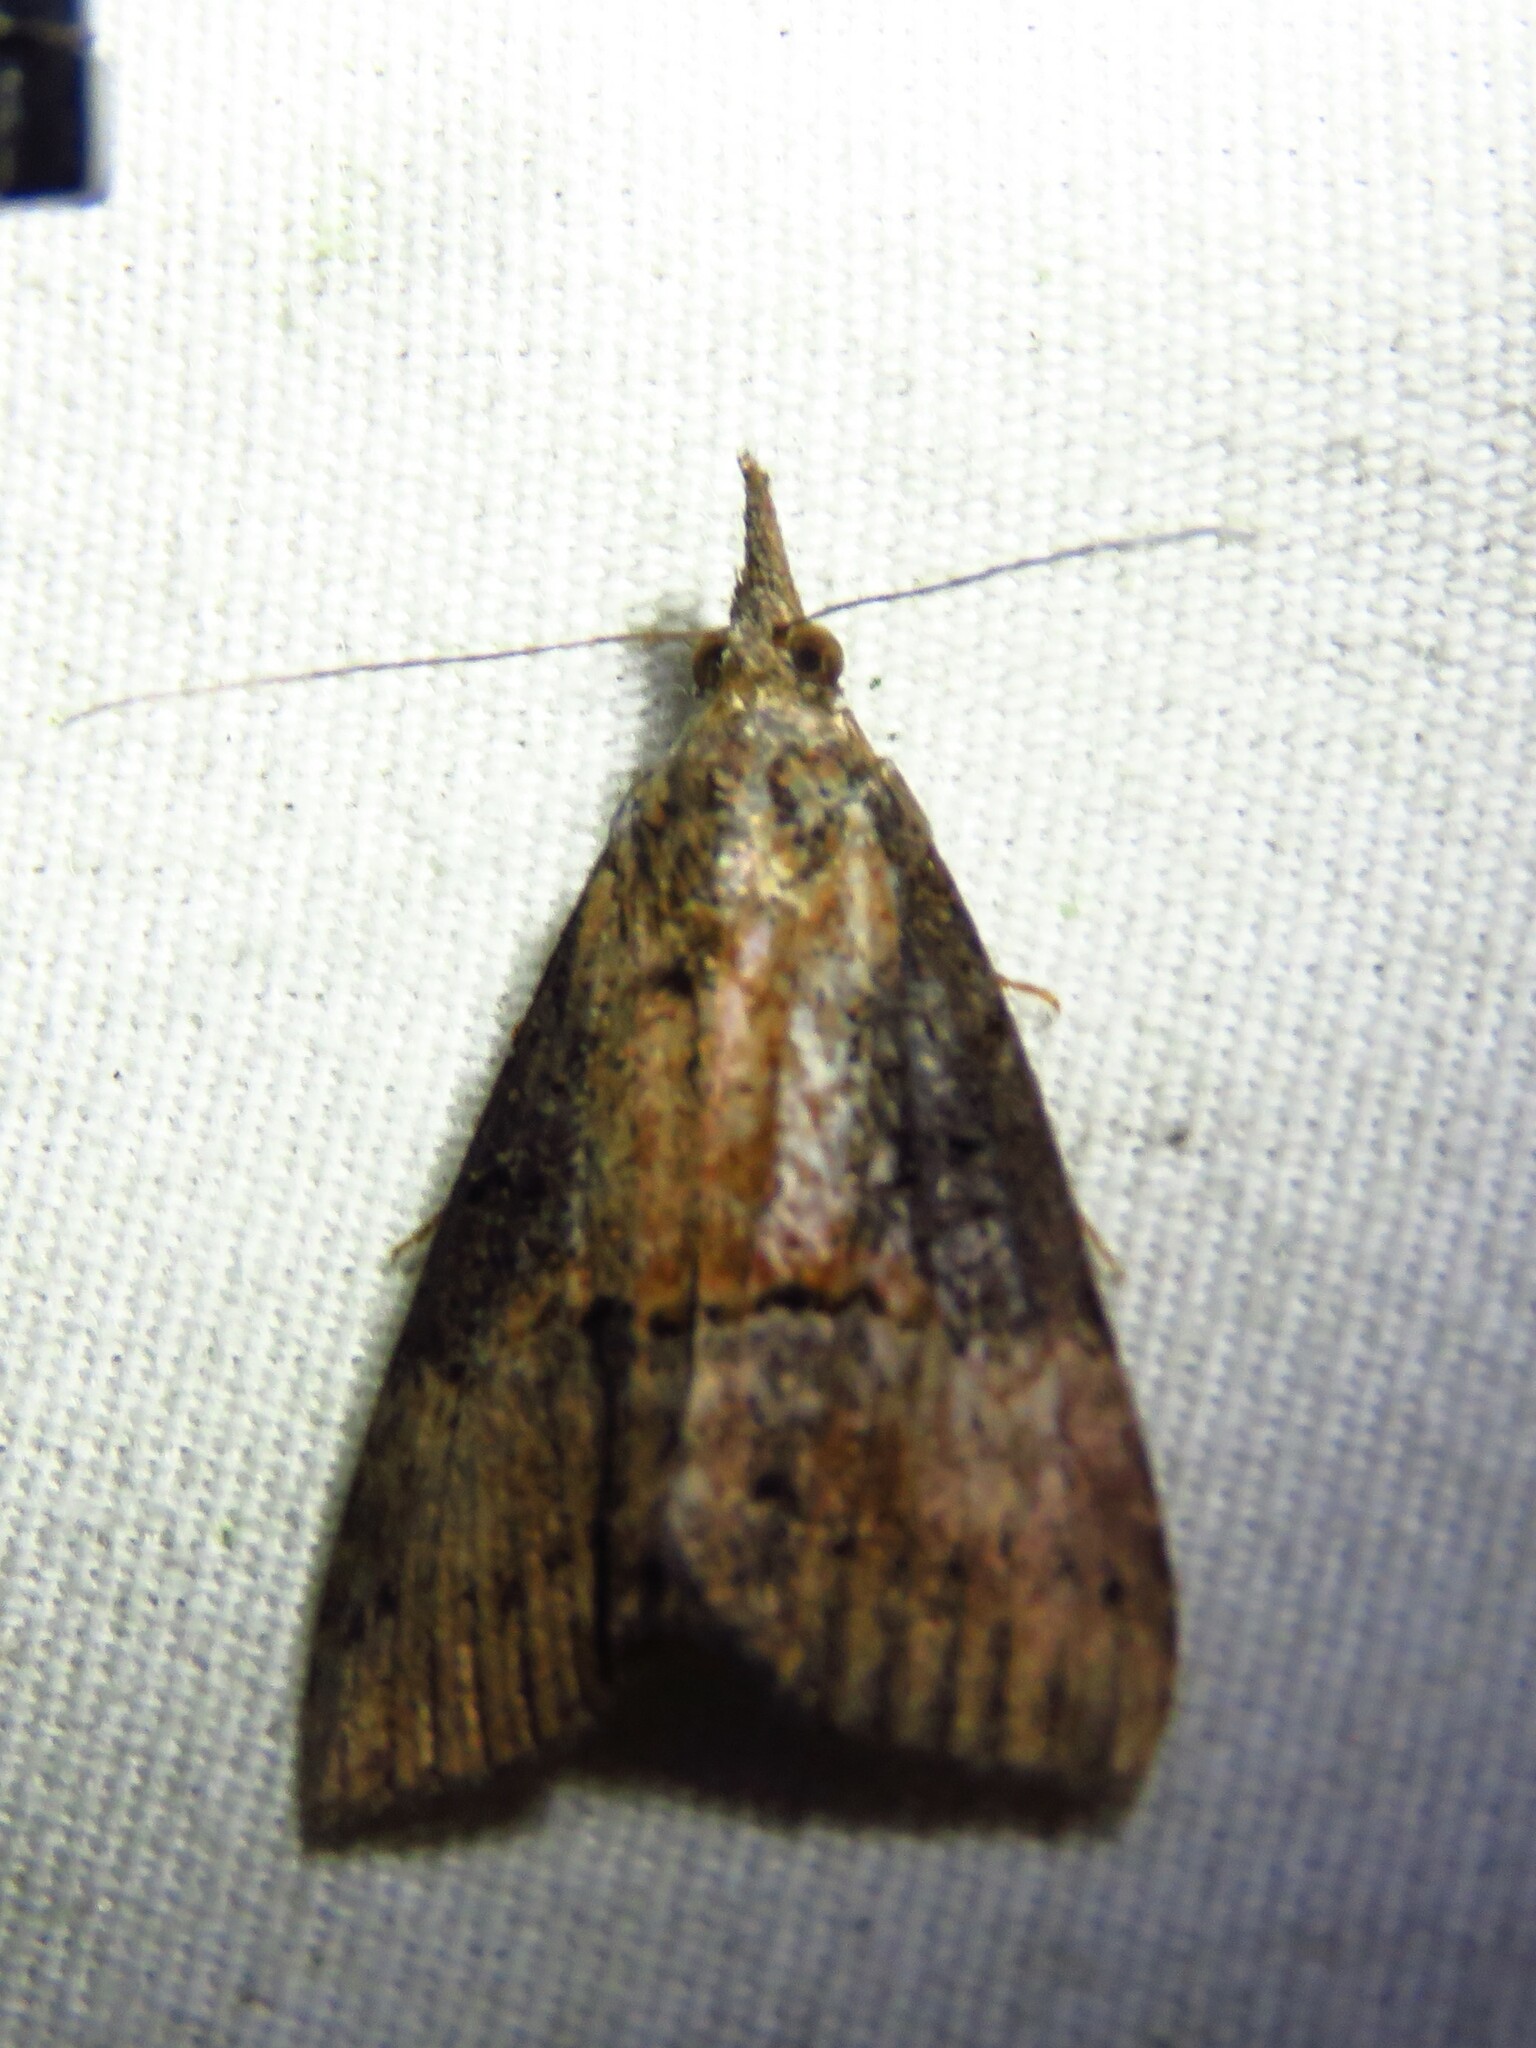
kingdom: Animalia
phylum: Arthropoda
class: Insecta
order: Lepidoptera
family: Erebidae
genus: Hypena
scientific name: Hypena scabra
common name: Green cloverworm
